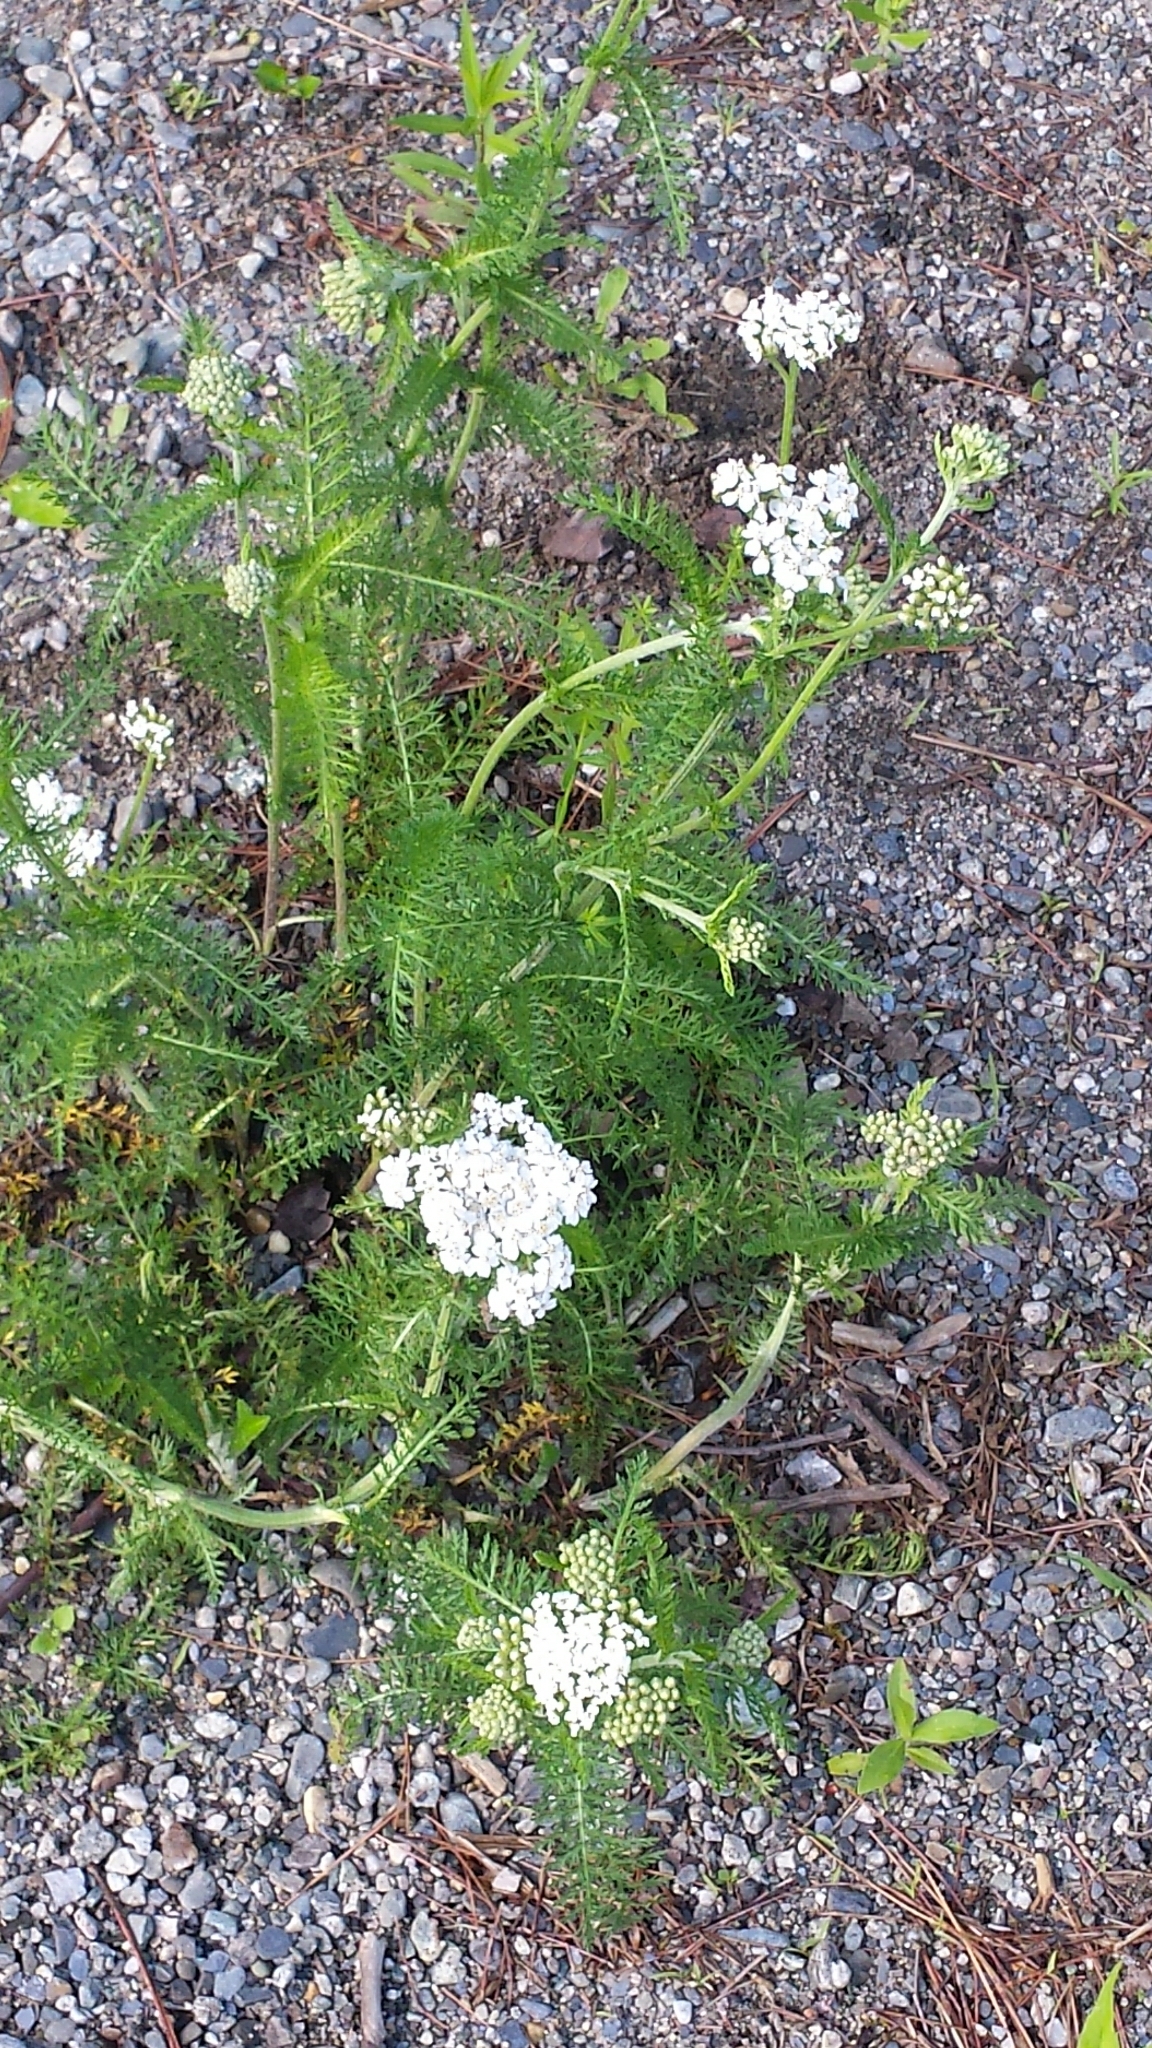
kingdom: Plantae
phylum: Tracheophyta
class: Magnoliopsida
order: Asterales
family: Asteraceae
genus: Achillea
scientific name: Achillea millefolium
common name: Yarrow
